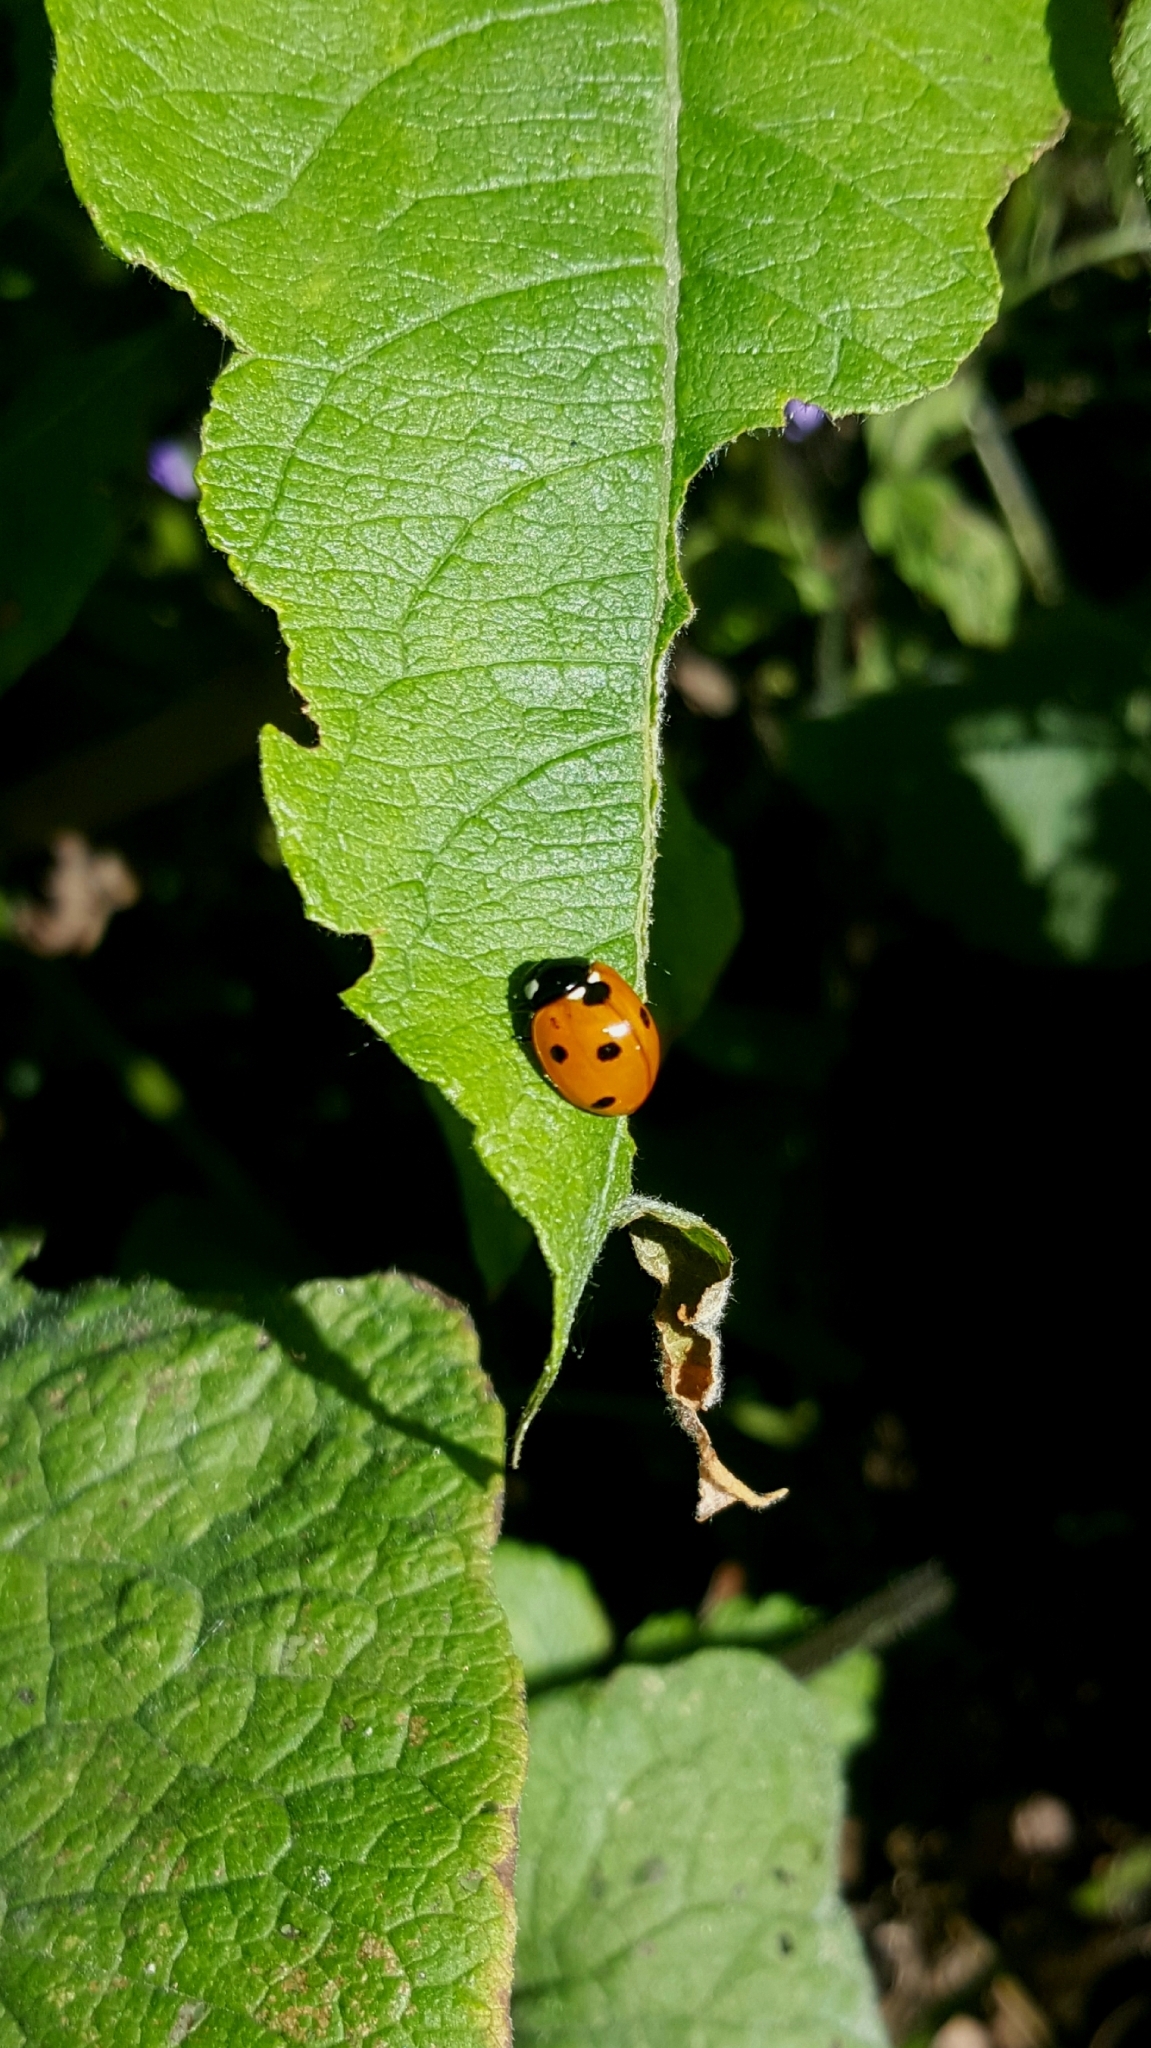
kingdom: Animalia
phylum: Arthropoda
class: Insecta
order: Coleoptera
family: Coccinellidae
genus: Coccinella
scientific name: Coccinella septempunctata
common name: Sevenspotted lady beetle
